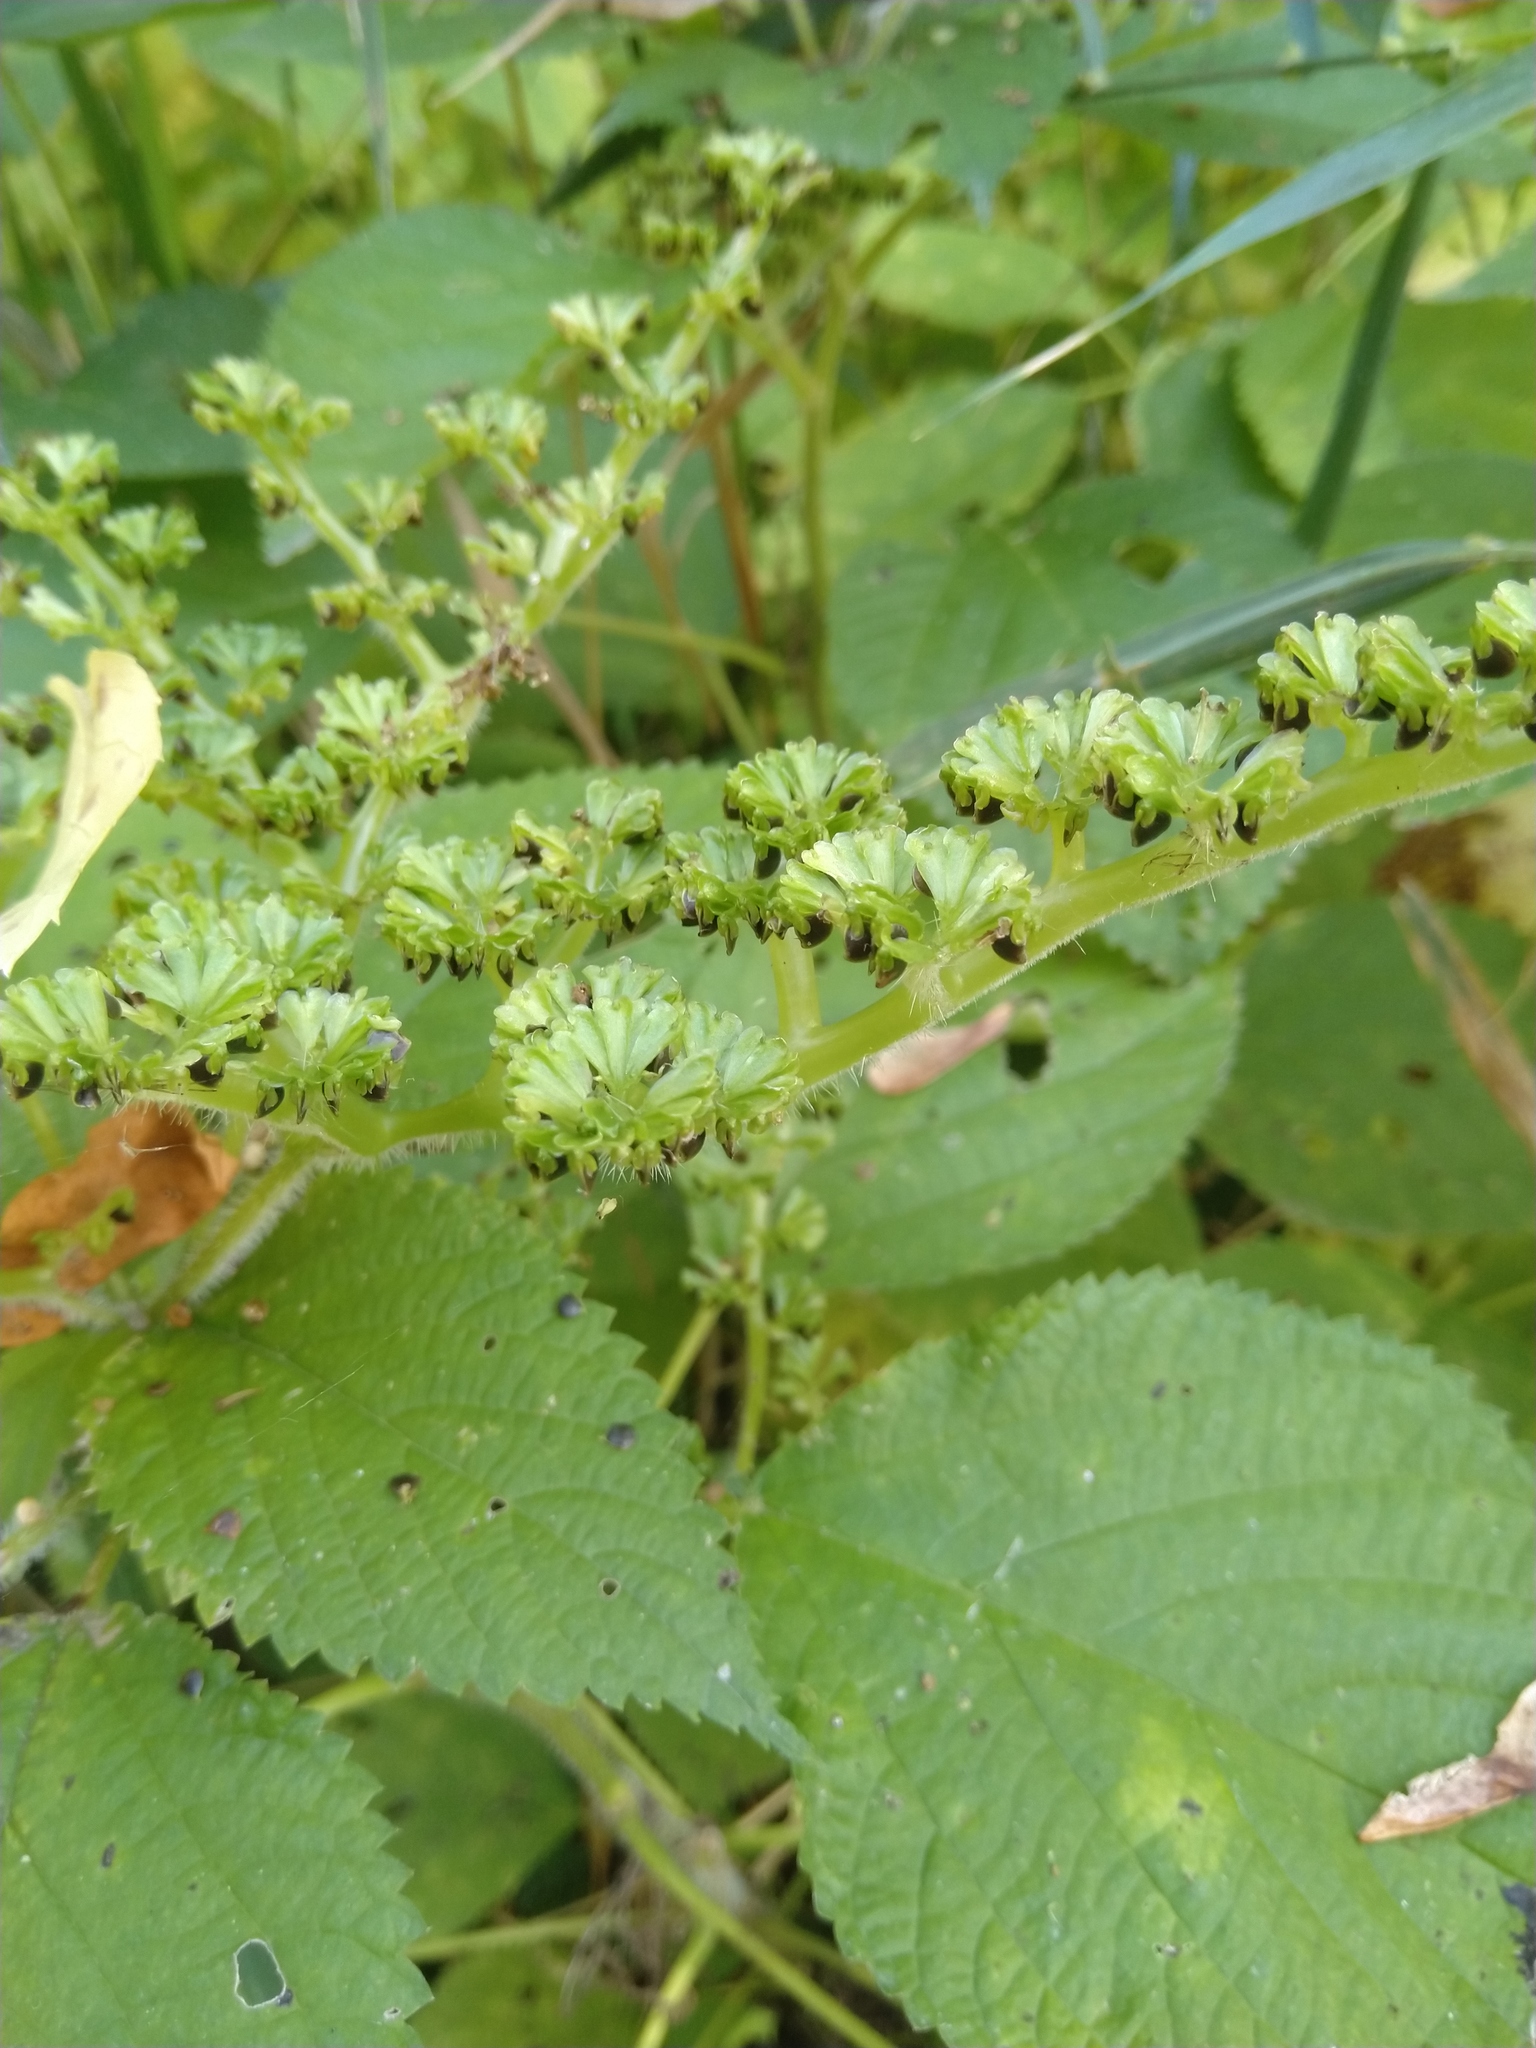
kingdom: Plantae
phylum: Tracheophyta
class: Magnoliopsida
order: Rosales
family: Urticaceae
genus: Laportea
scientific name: Laportea canadensis
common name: Canada nettle
